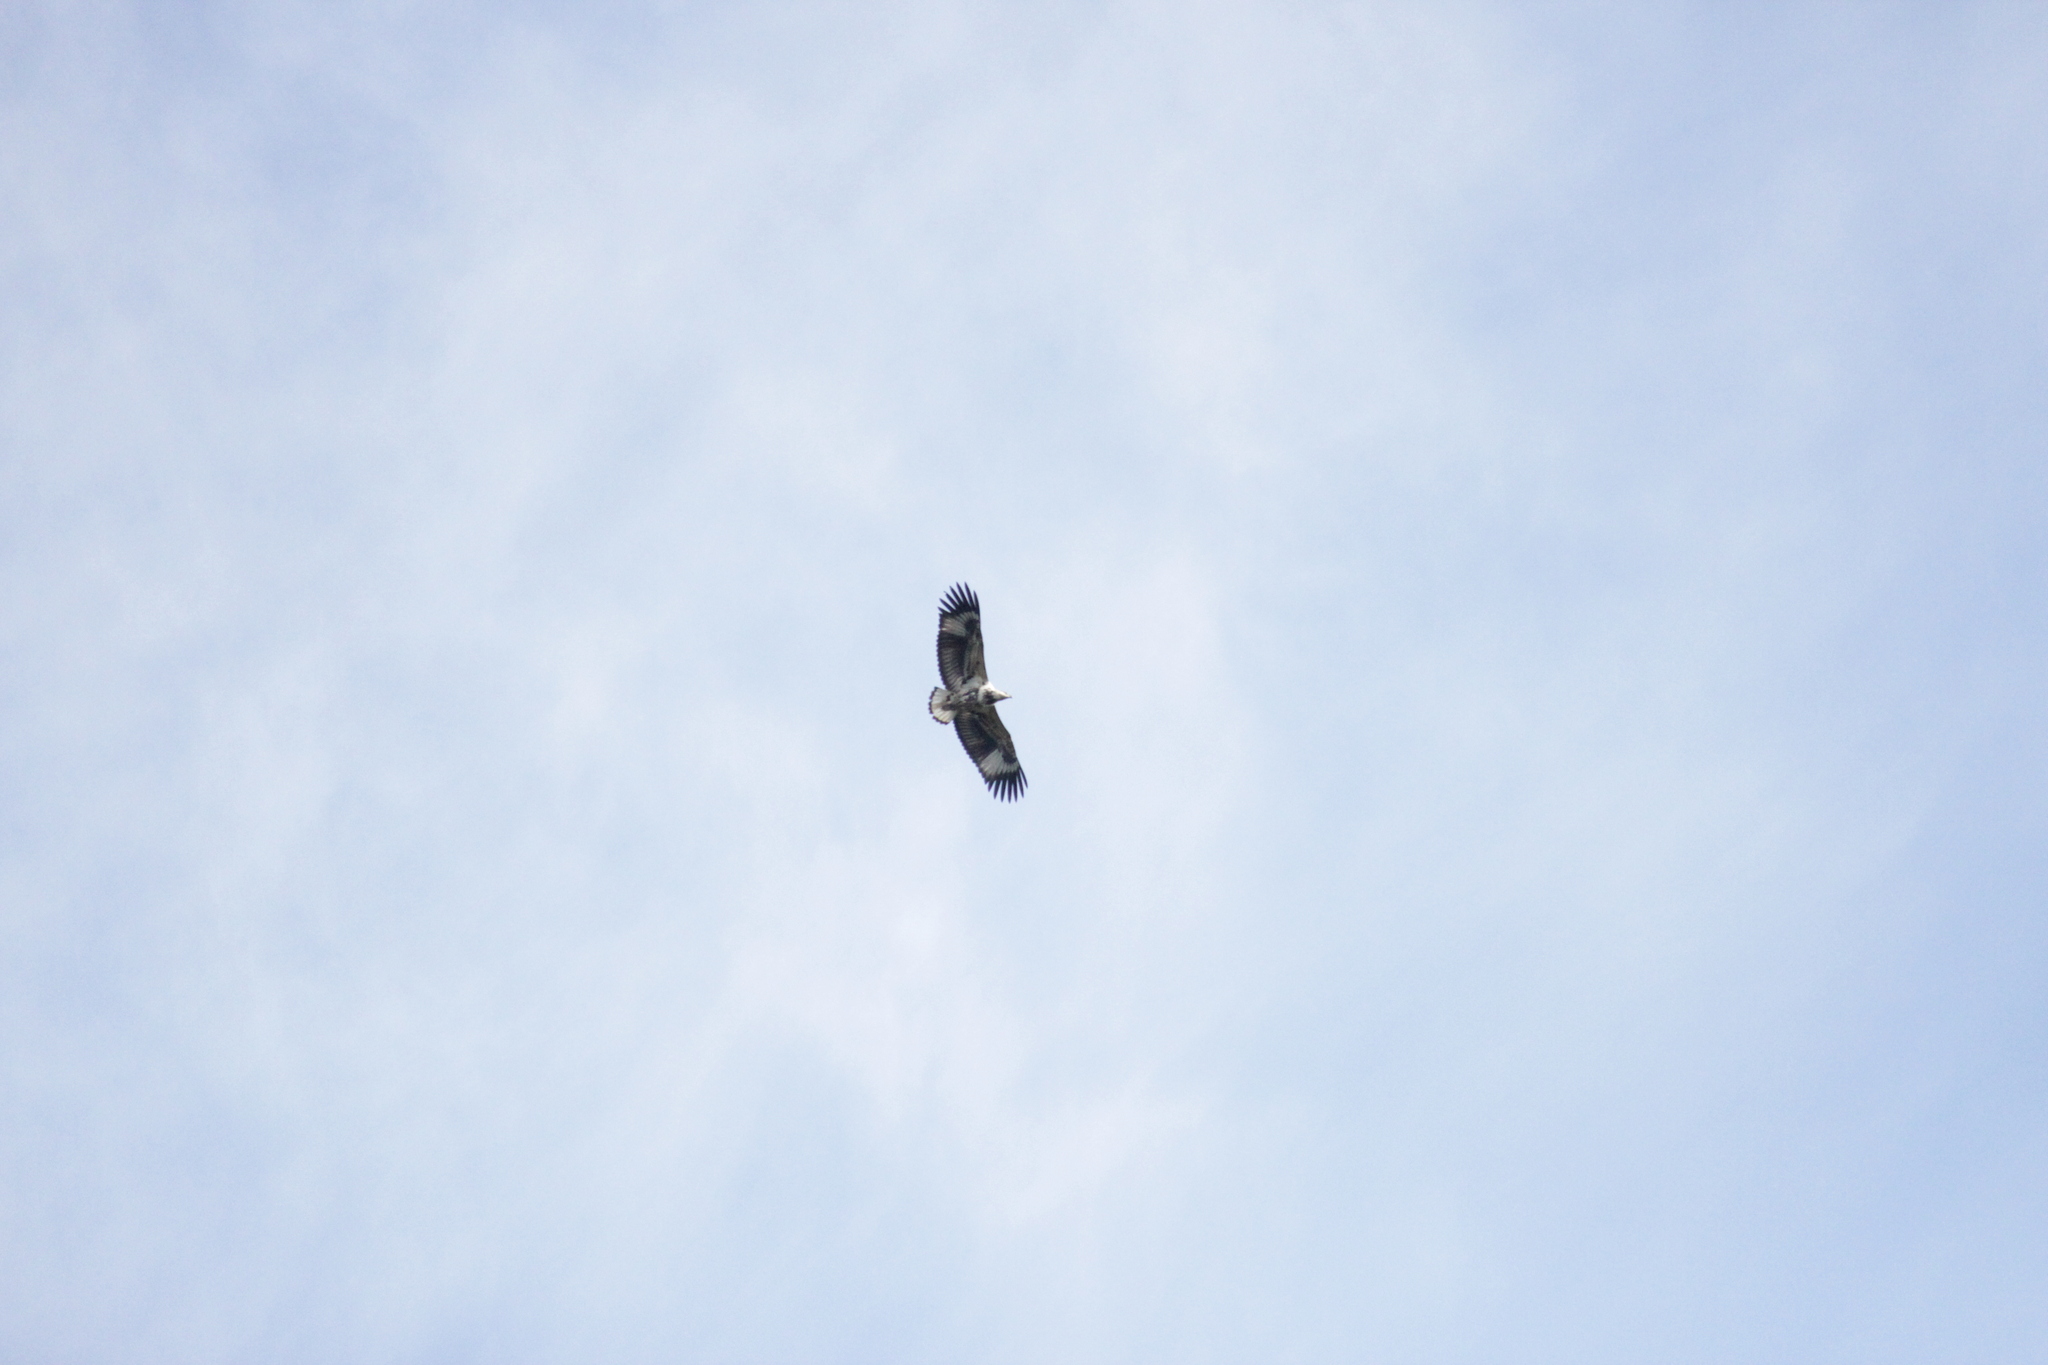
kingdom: Animalia
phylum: Chordata
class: Aves
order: Accipitriformes
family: Accipitridae
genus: Haliaeetus
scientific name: Haliaeetus vocifer
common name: African fish eagle
